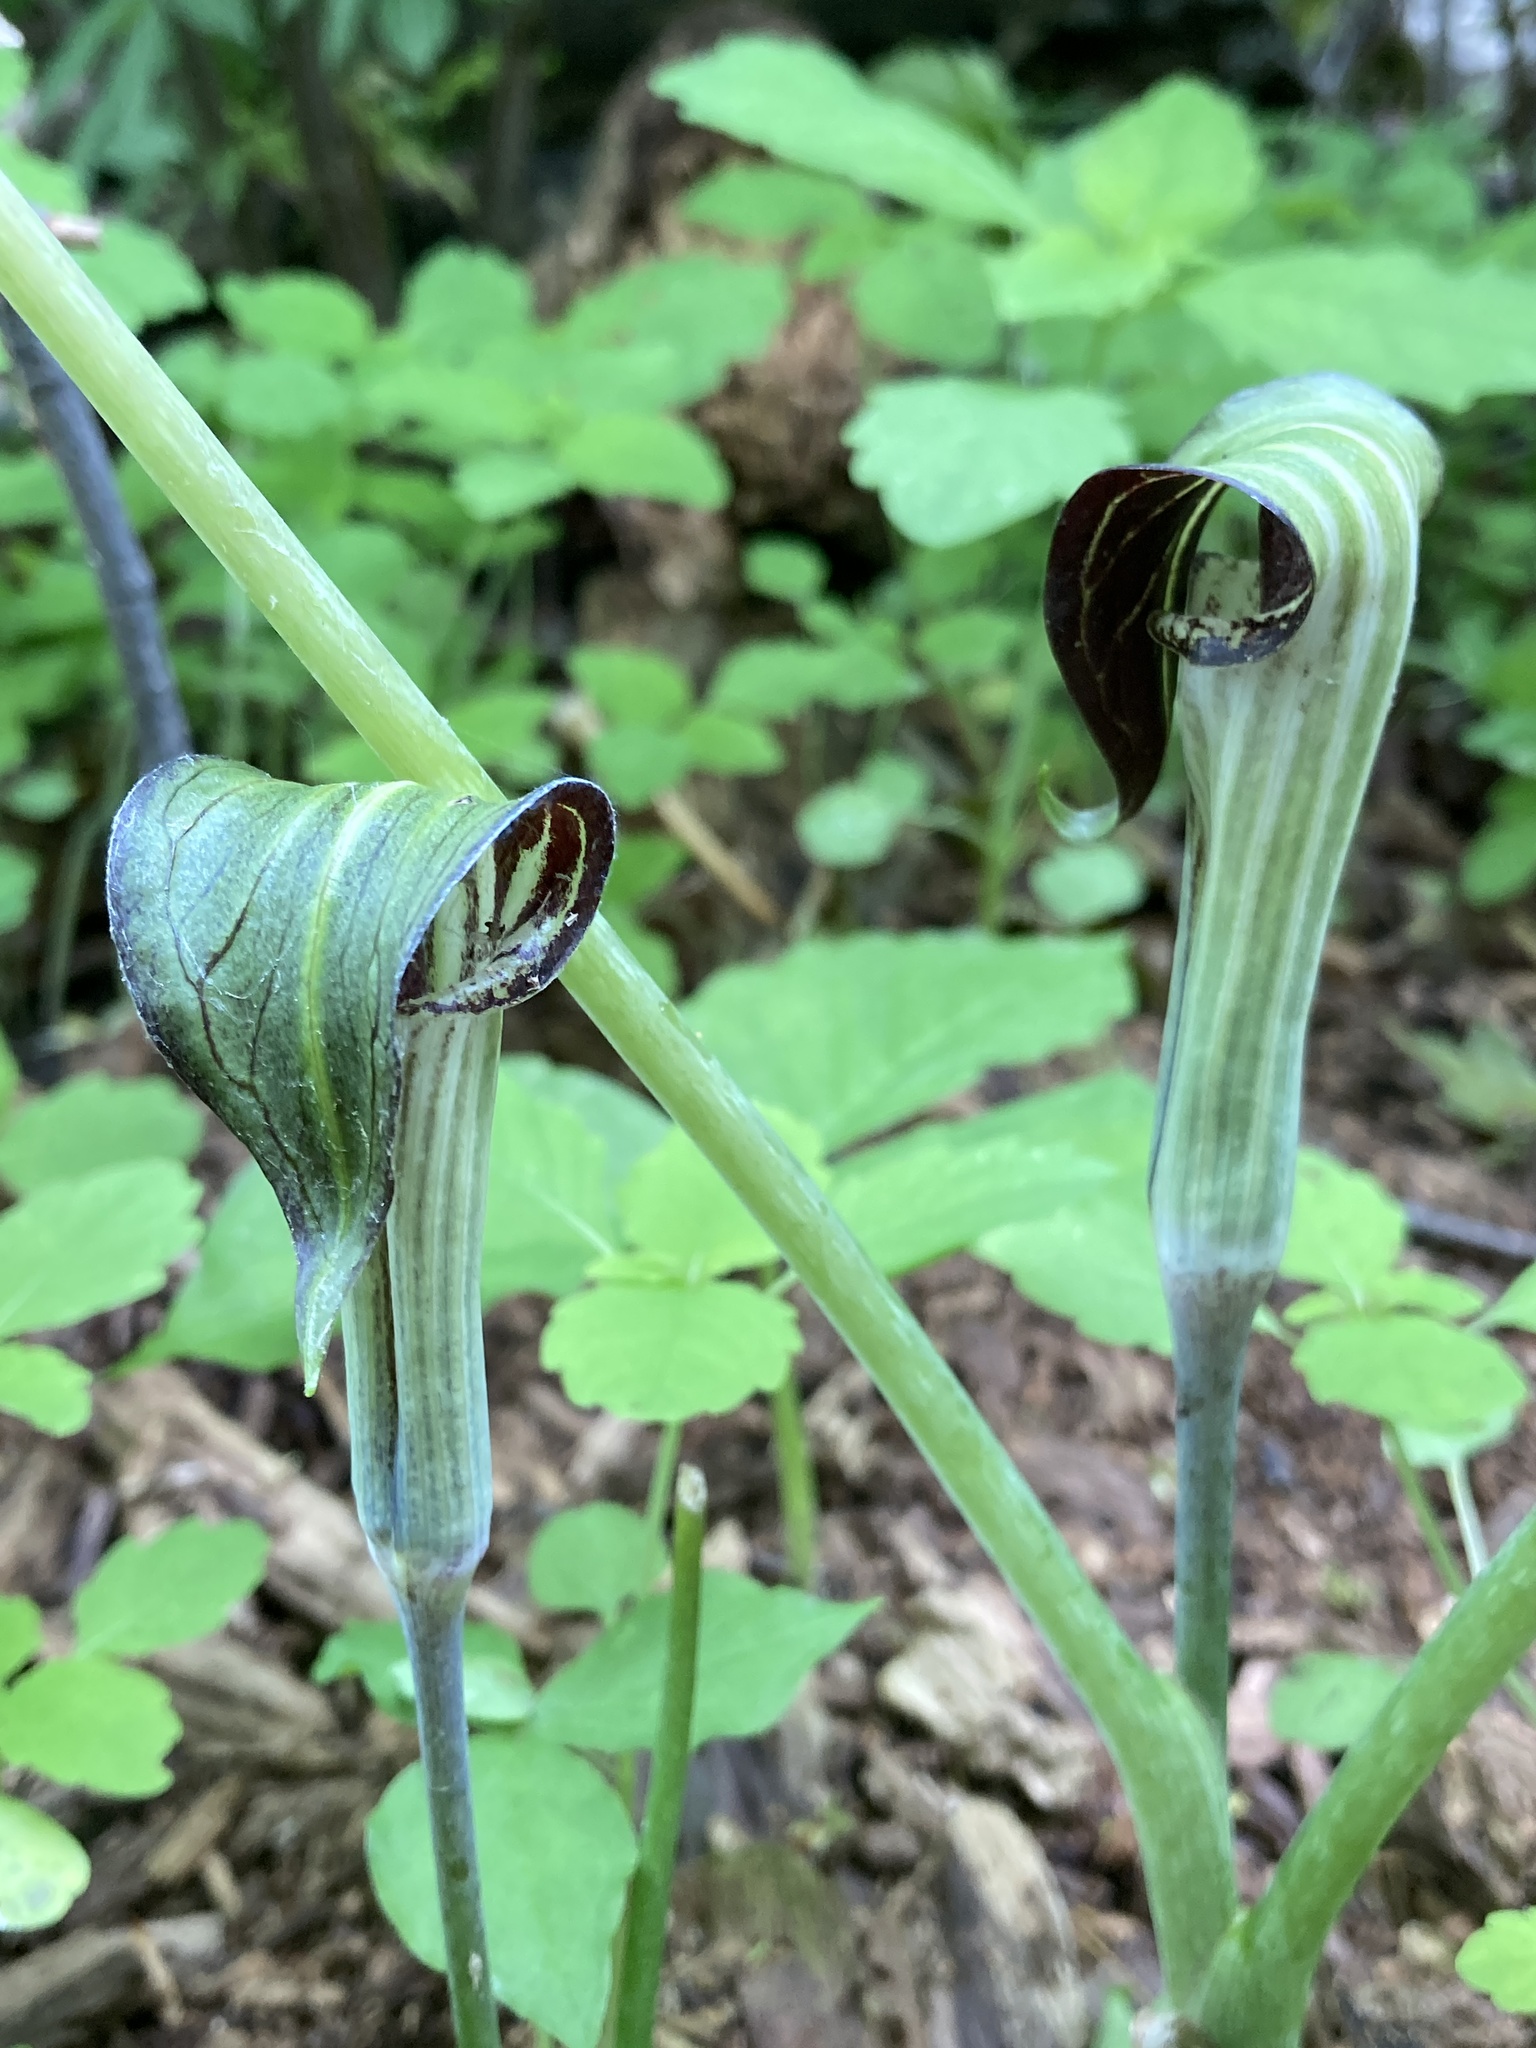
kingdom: Plantae
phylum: Tracheophyta
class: Liliopsida
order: Alismatales
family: Araceae
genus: Arisaema
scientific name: Arisaema triphyllum
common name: Jack-in-the-pulpit
